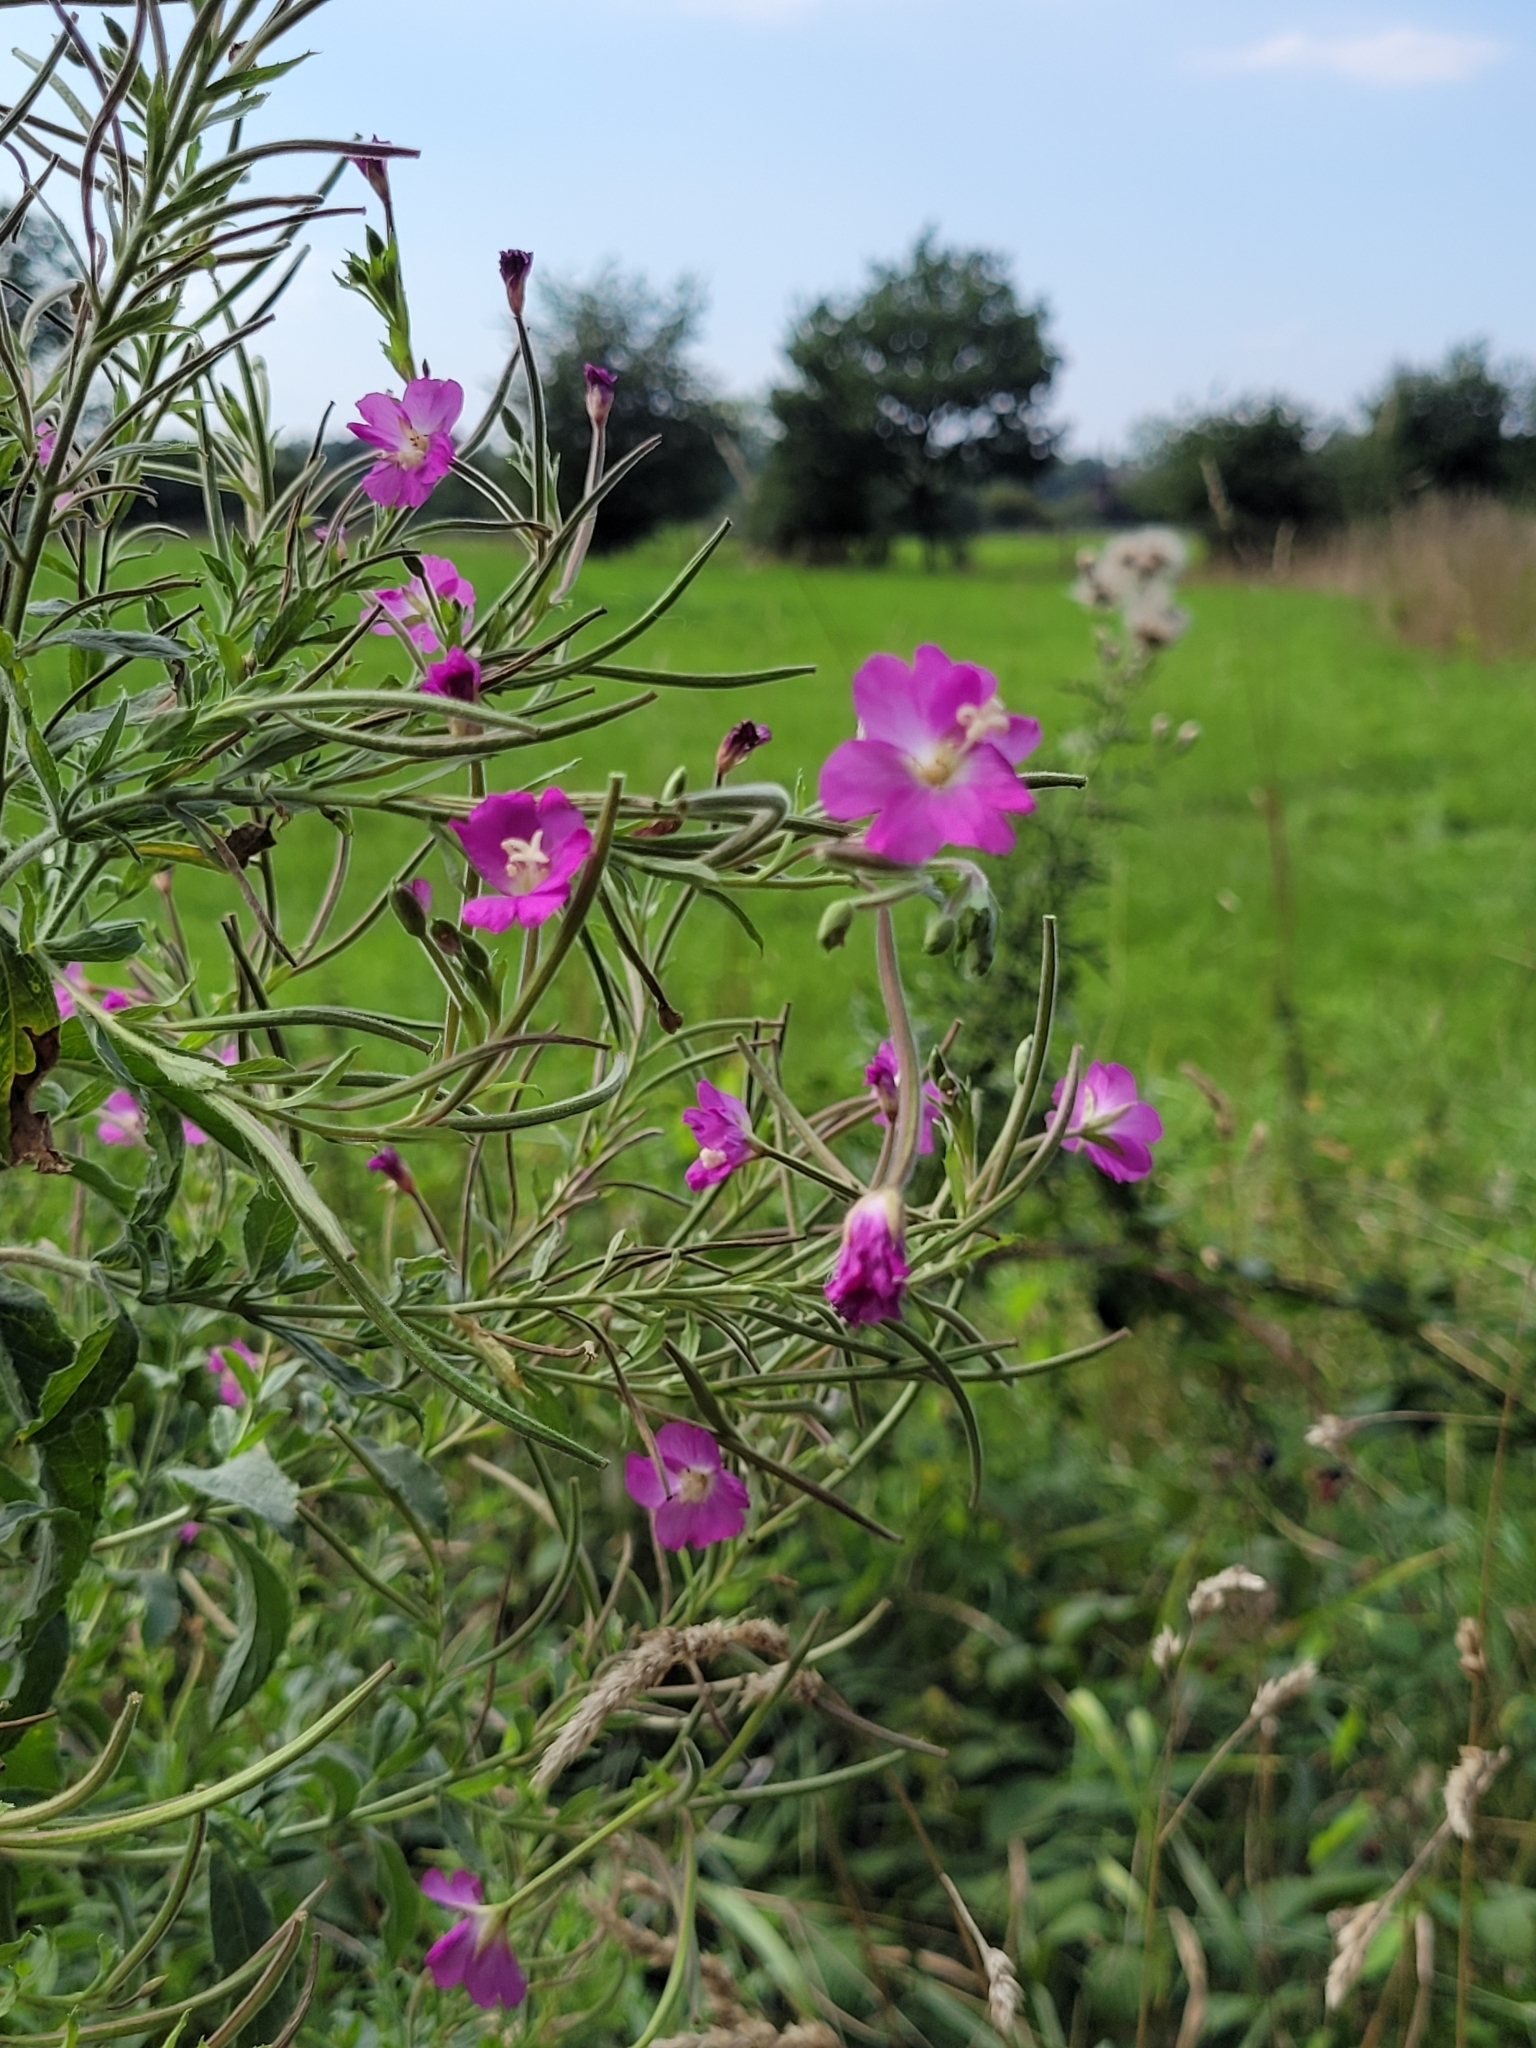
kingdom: Plantae
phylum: Tracheophyta
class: Magnoliopsida
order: Myrtales
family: Onagraceae
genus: Epilobium
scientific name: Epilobium hirsutum
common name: Great willowherb
